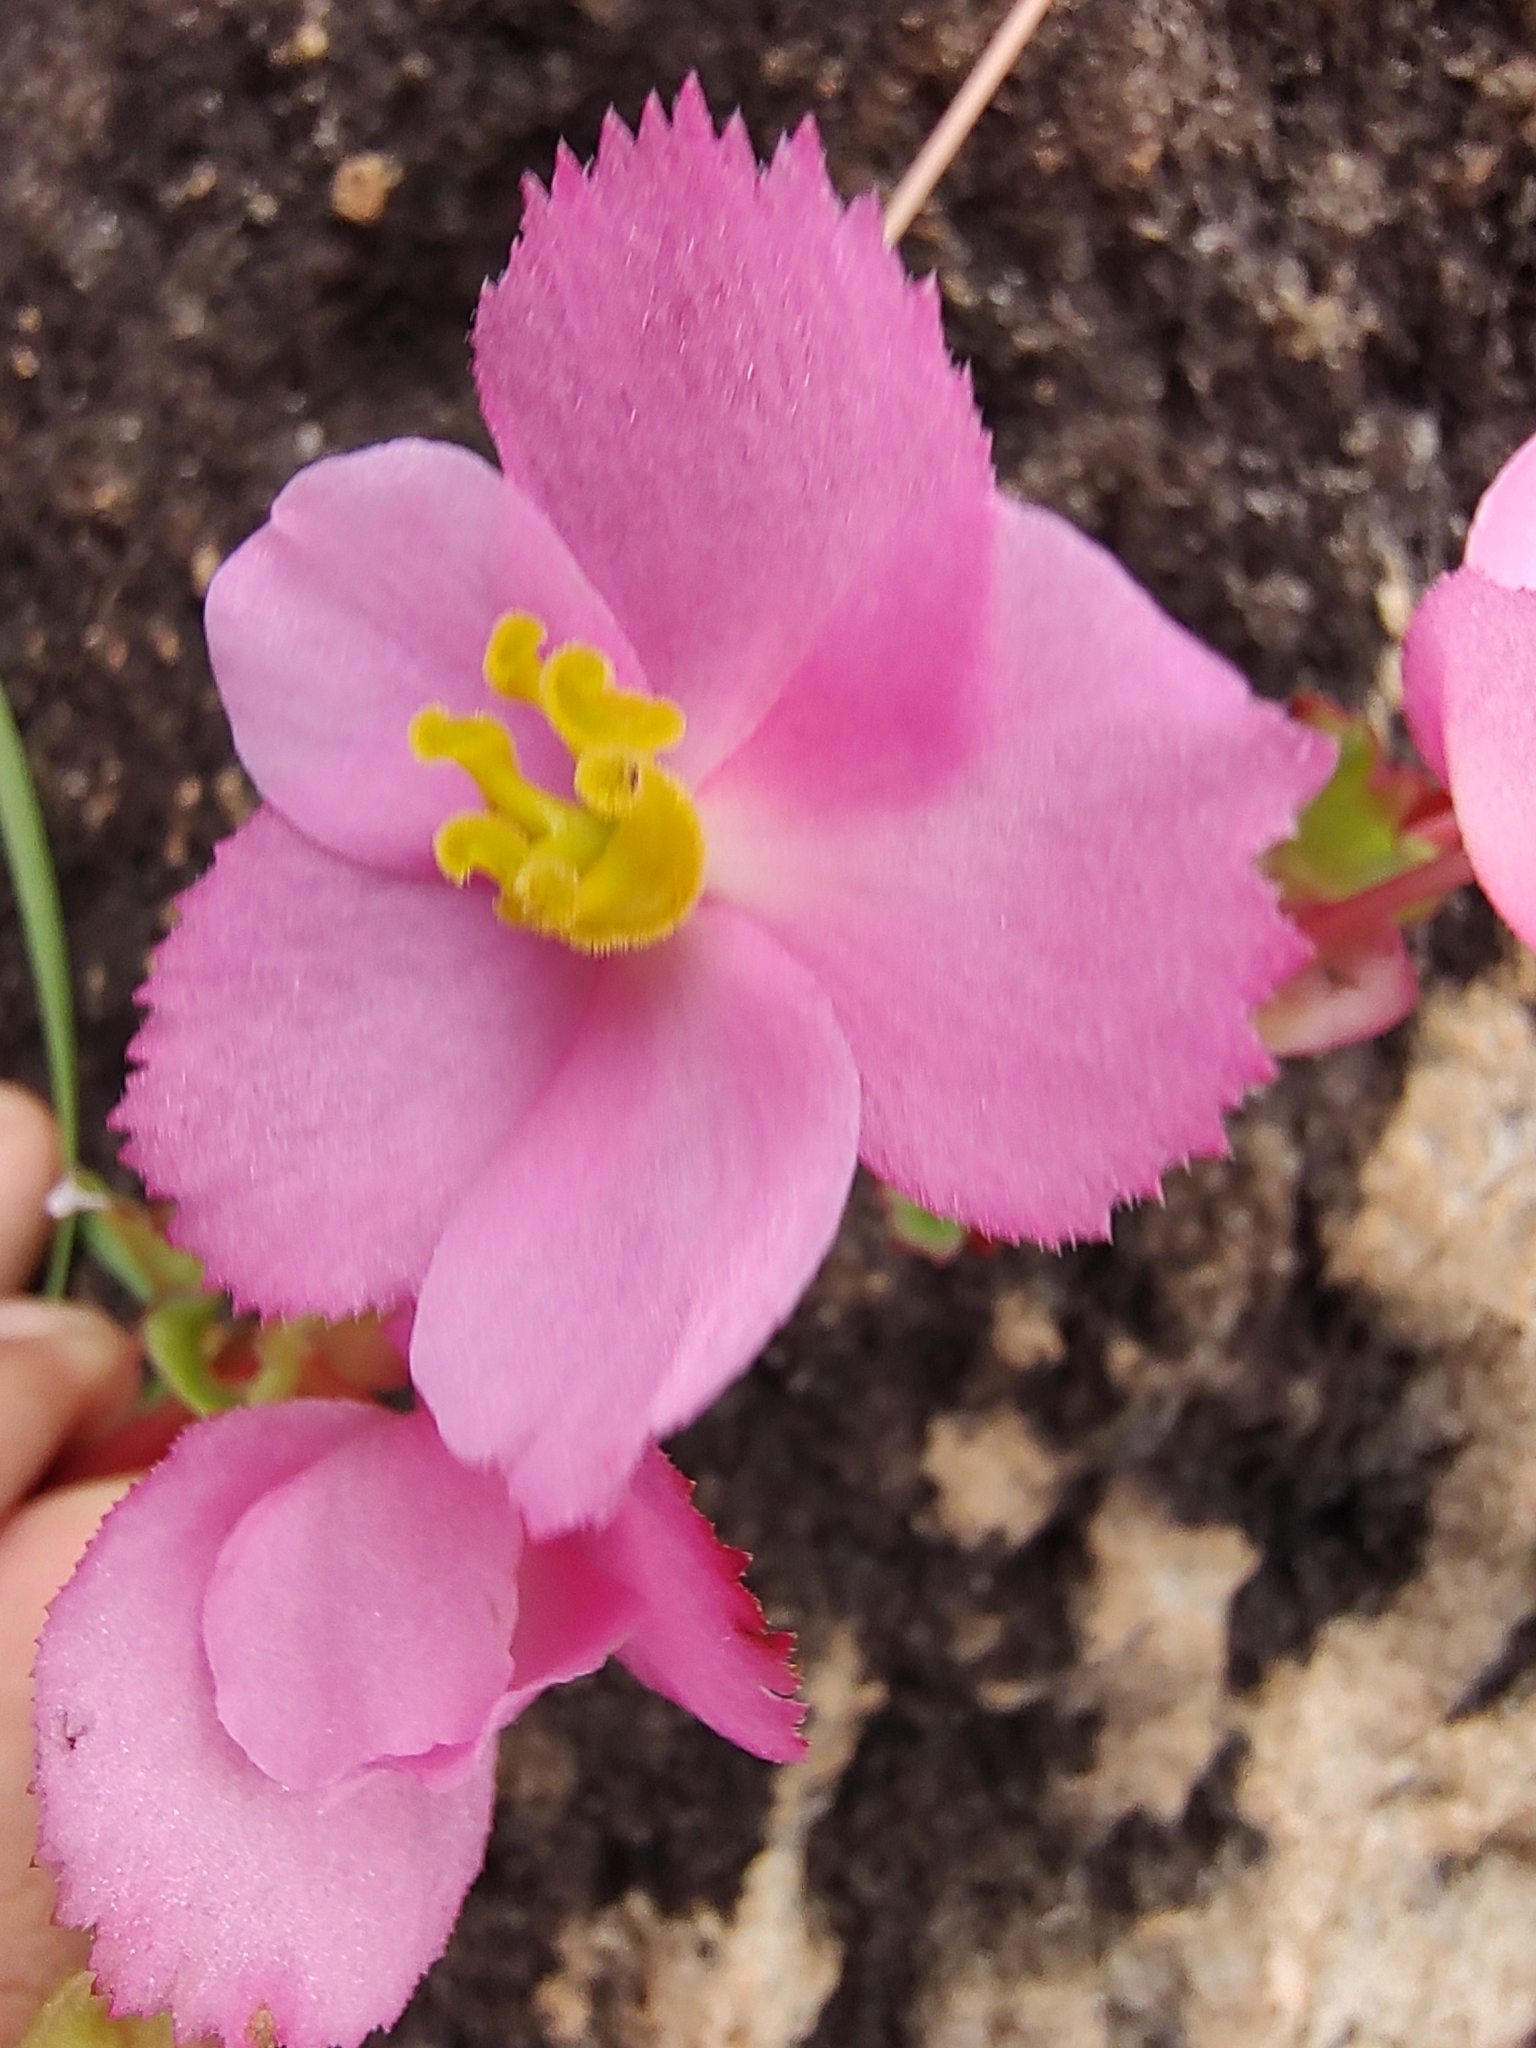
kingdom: Plantae
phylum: Tracheophyta
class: Magnoliopsida
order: Cucurbitales
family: Begoniaceae
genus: Begonia
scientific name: Begonia tapatia
